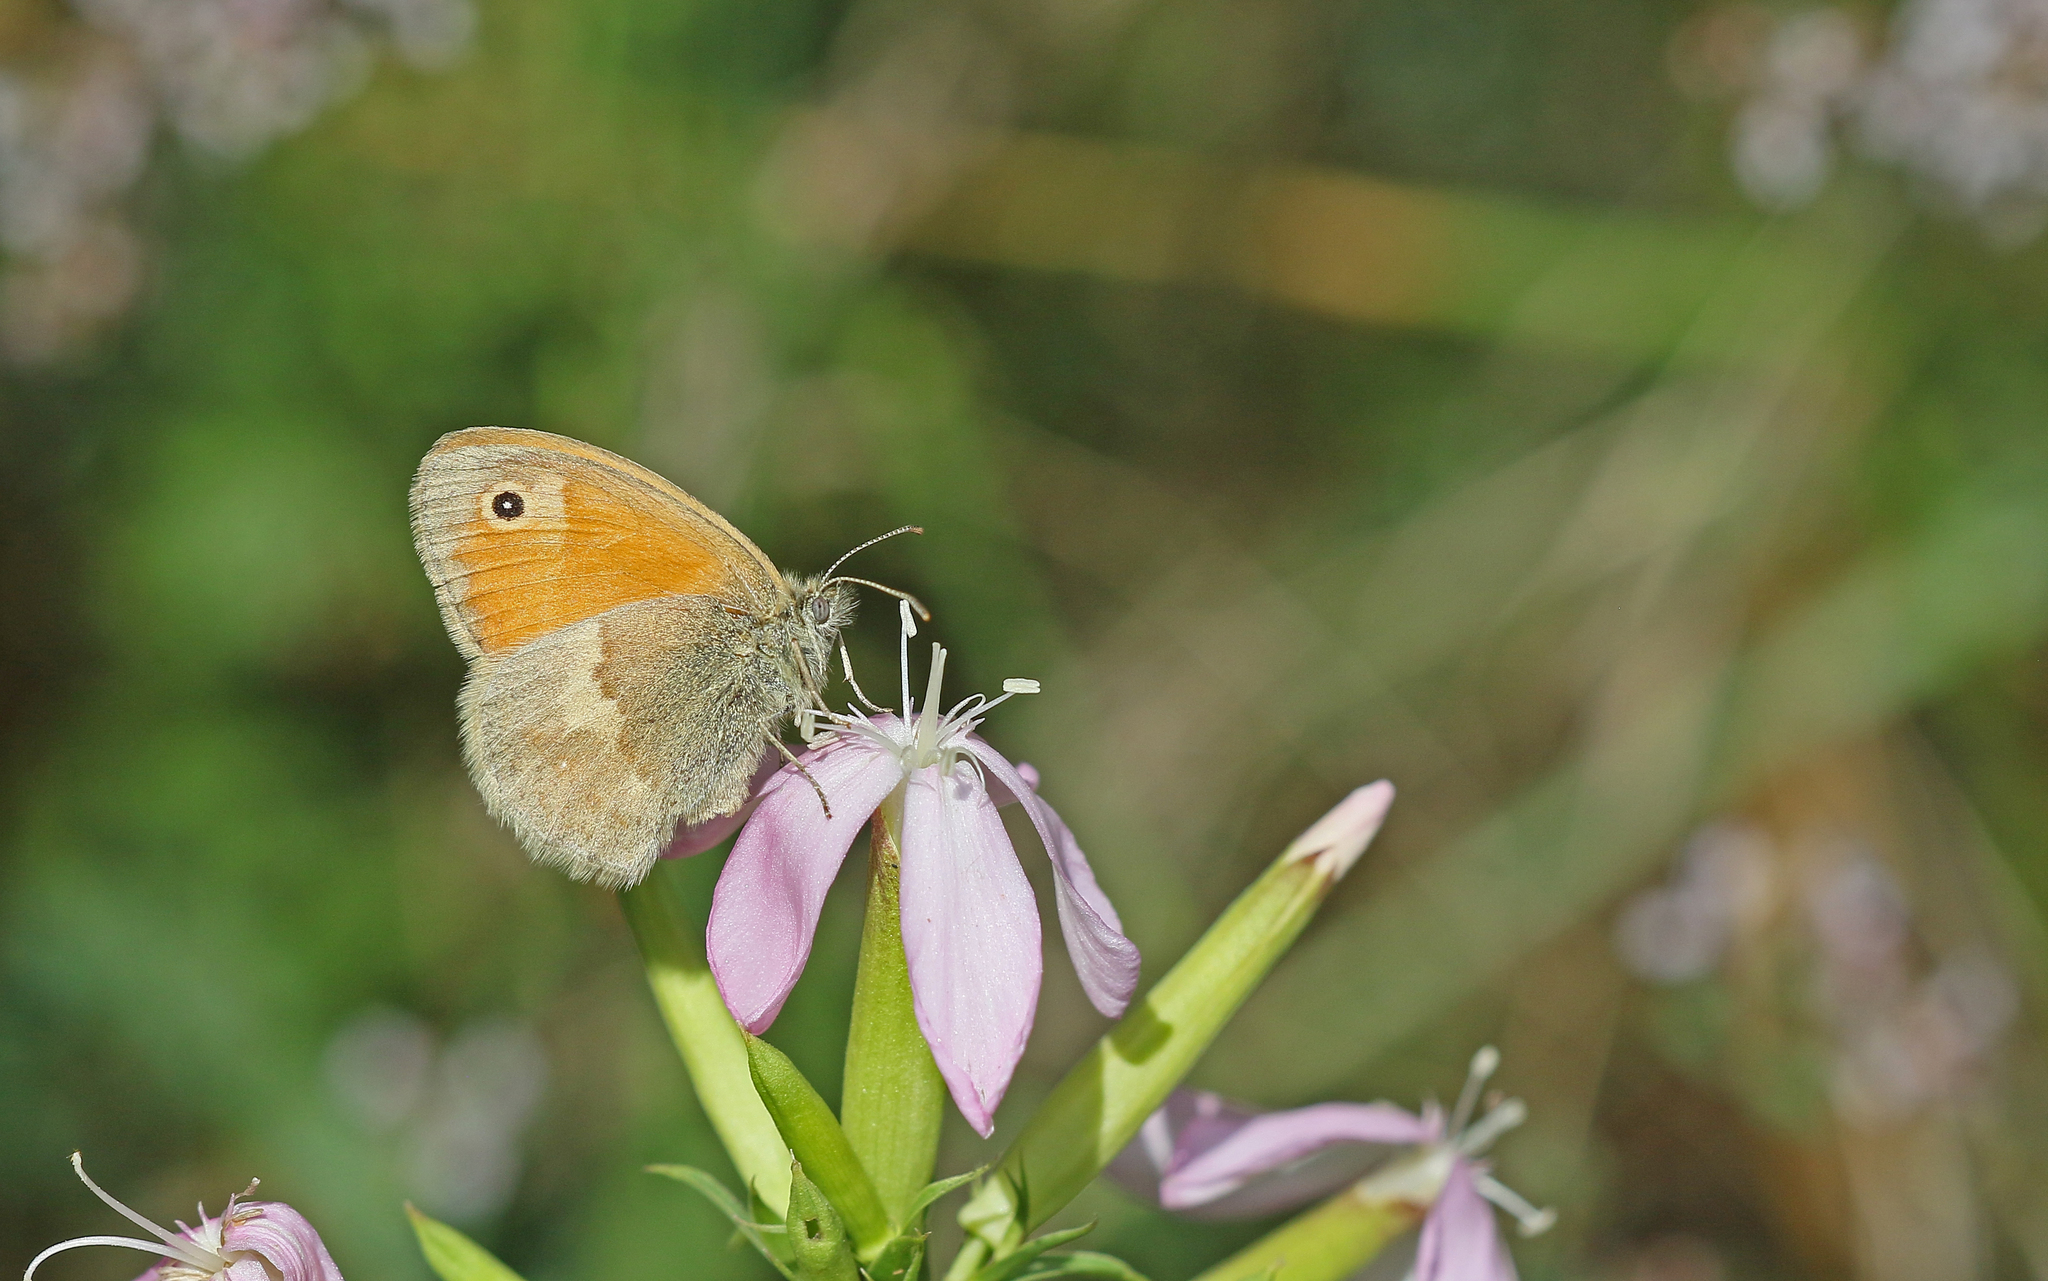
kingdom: Animalia
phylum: Arthropoda
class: Insecta
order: Lepidoptera
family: Nymphalidae
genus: Coenonympha
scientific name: Coenonympha pamphilus
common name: Small heath
